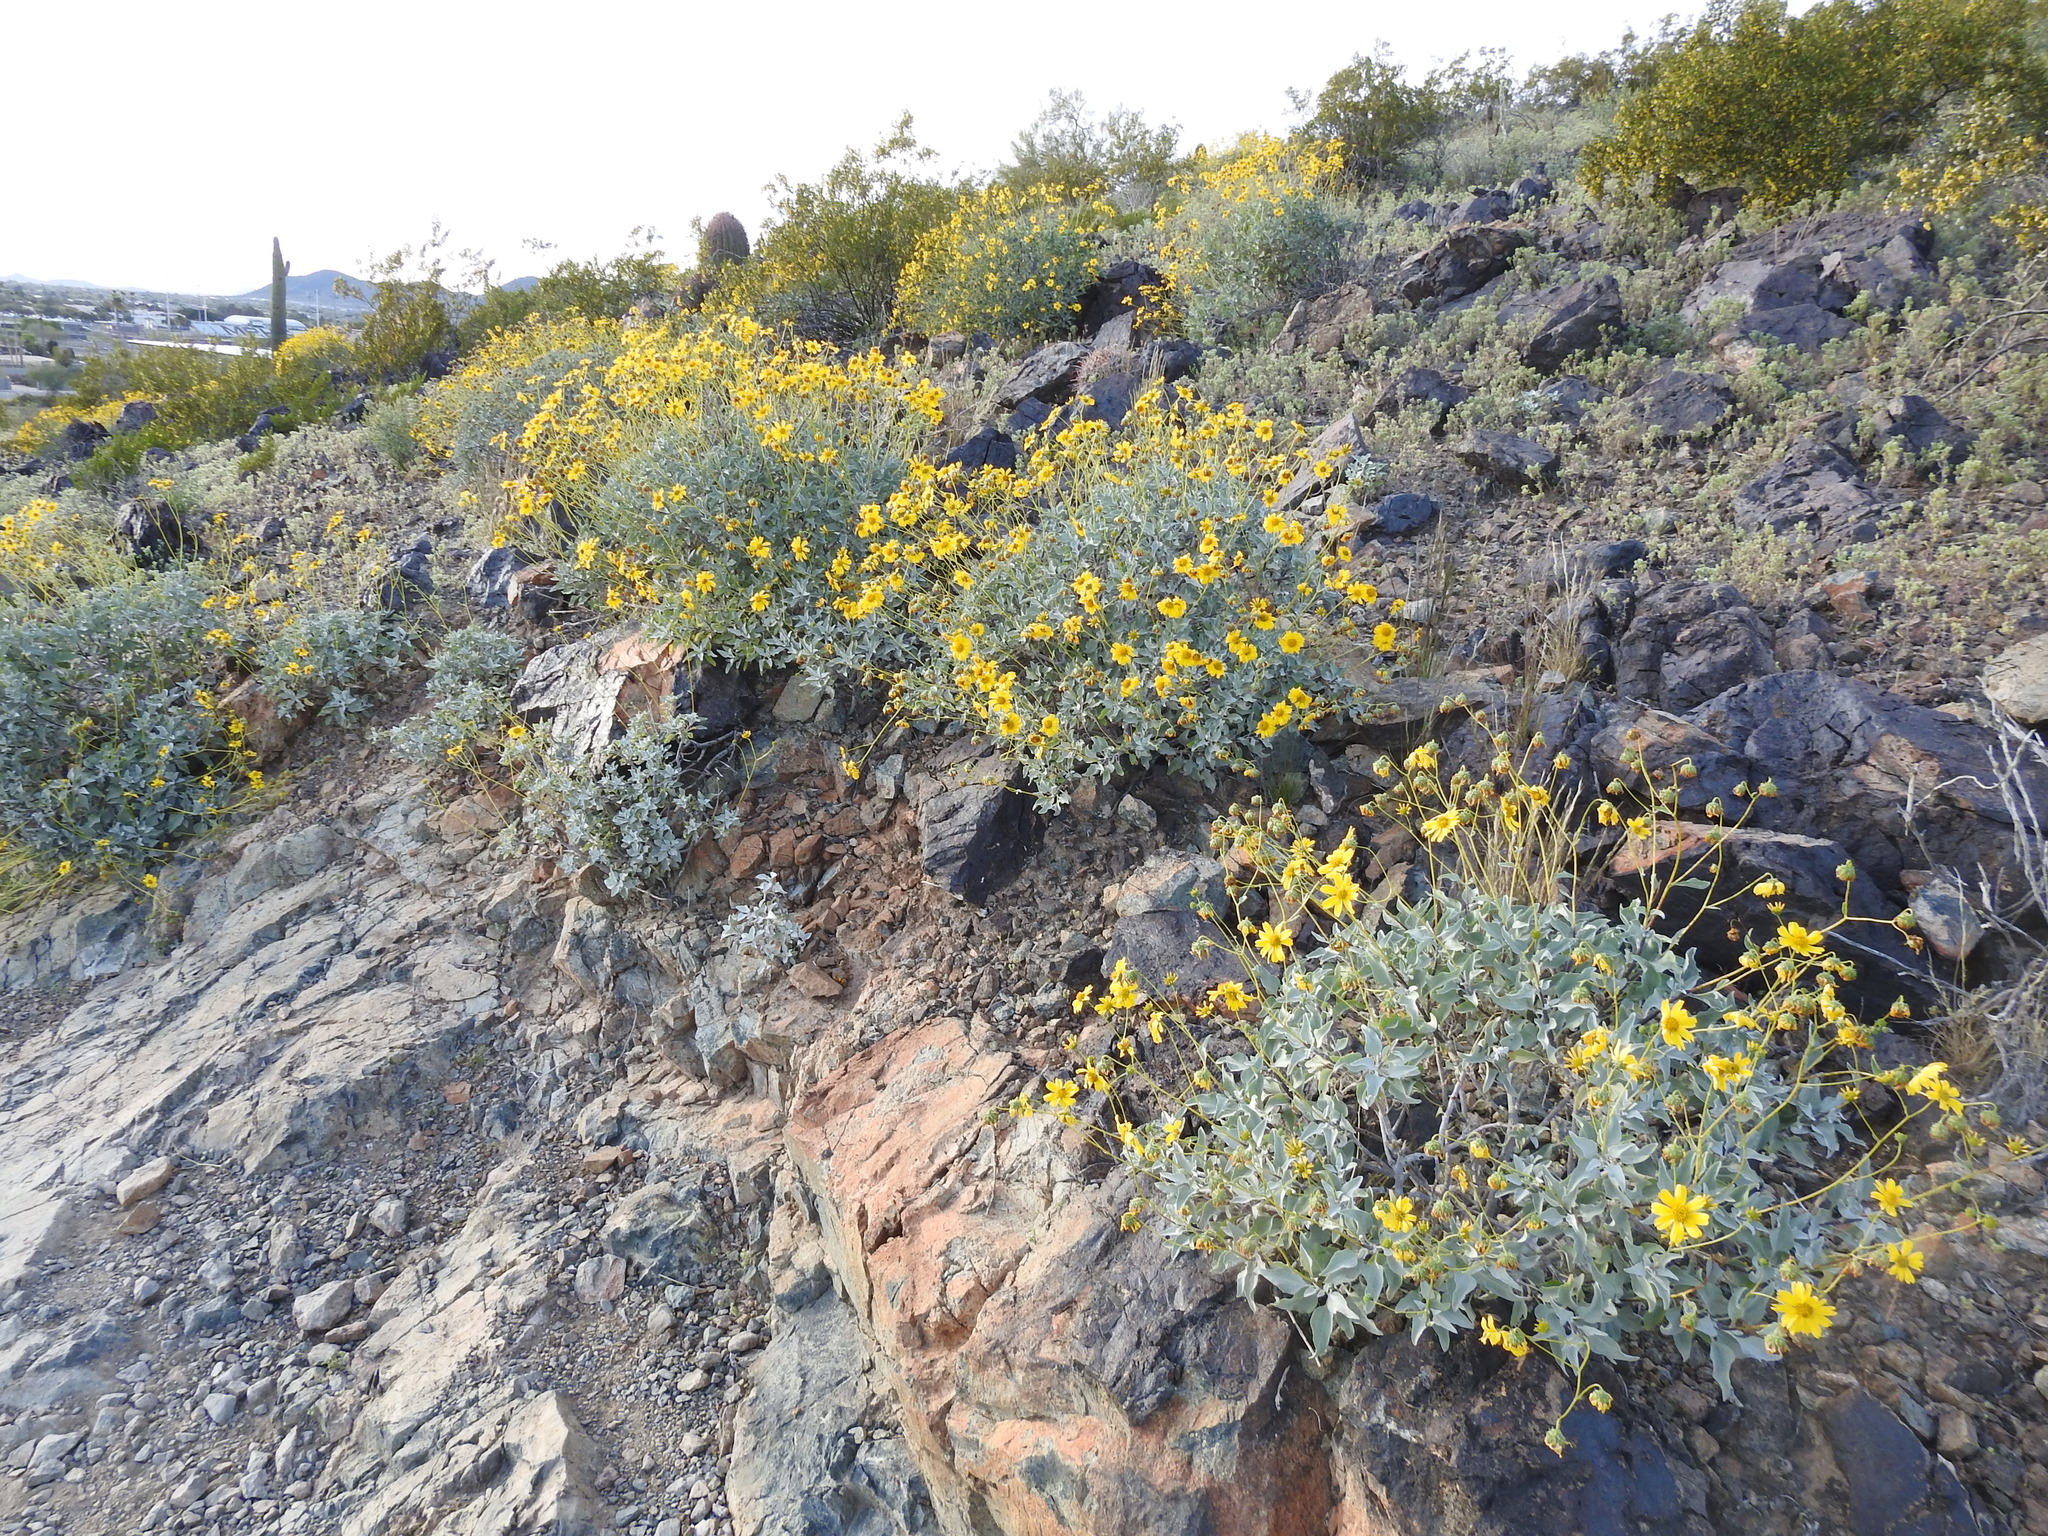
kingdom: Plantae
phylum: Tracheophyta
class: Magnoliopsida
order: Asterales
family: Asteraceae
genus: Encelia
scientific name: Encelia farinosa
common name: Brittlebush
